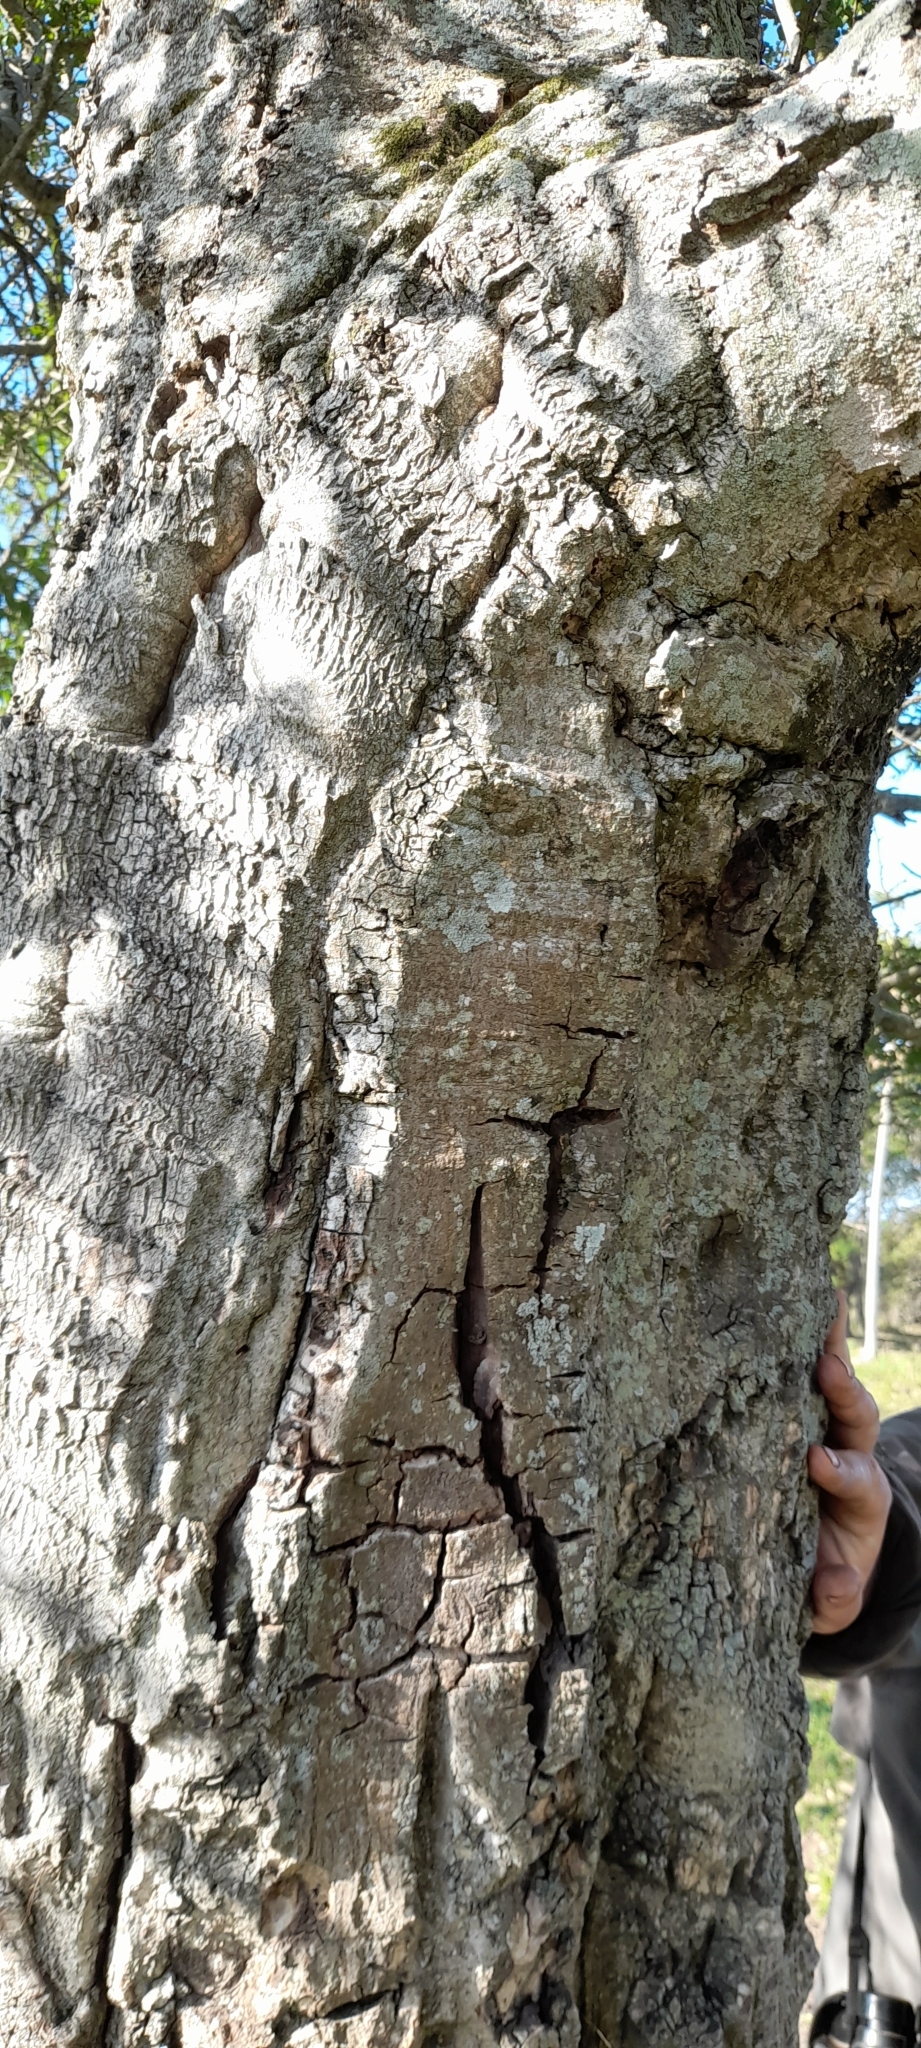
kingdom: Plantae
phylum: Tracheophyta
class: Magnoliopsida
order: Malpighiales
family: Phyllanthaceae
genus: Phyllanthus
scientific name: Phyllanthus chacoensis
